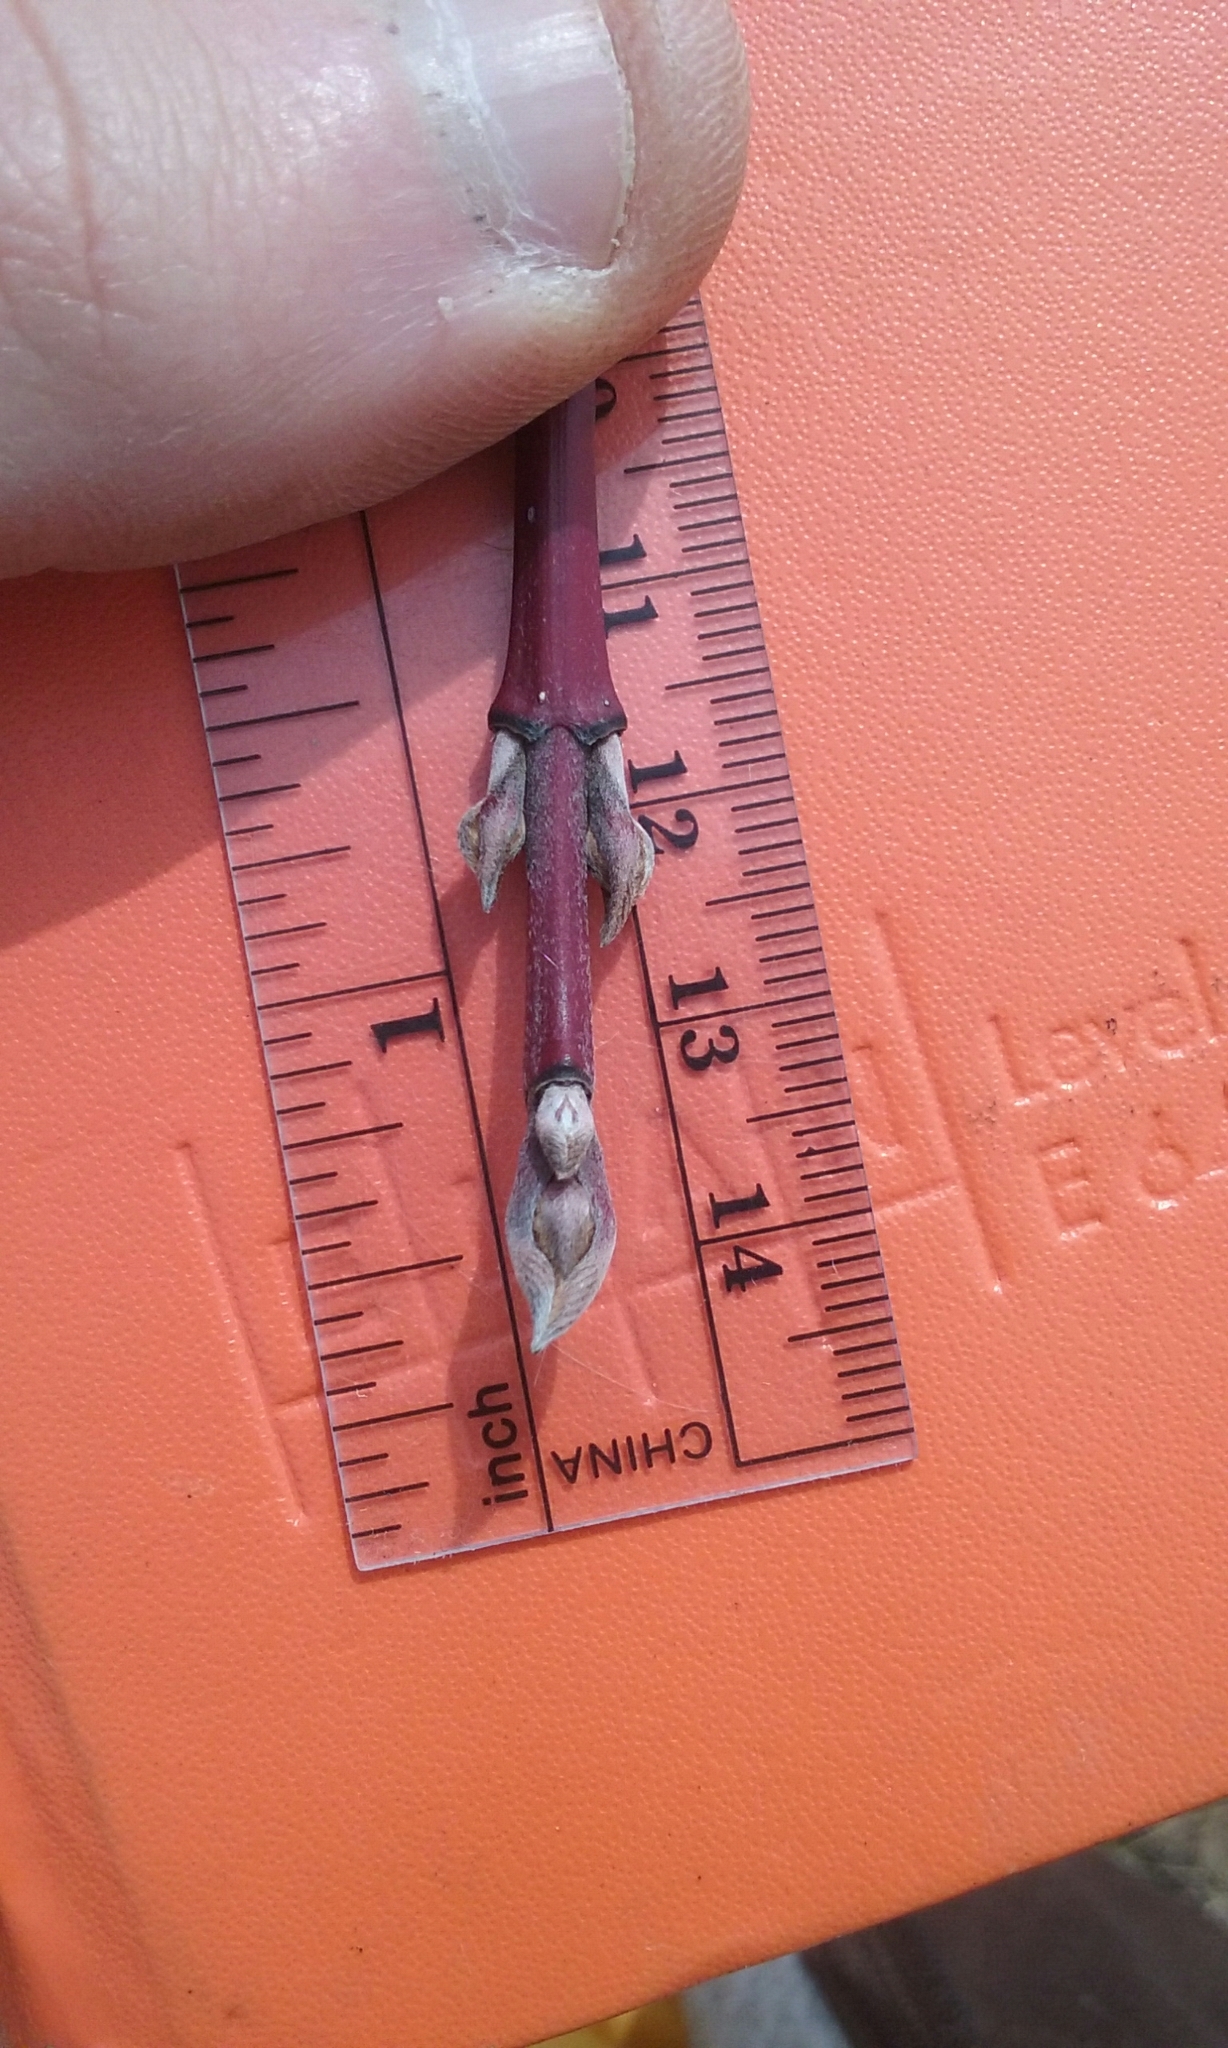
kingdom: Plantae
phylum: Tracheophyta
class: Magnoliopsida
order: Cornales
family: Cornaceae
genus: Cornus
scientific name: Cornus sericea
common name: Red-osier dogwood
